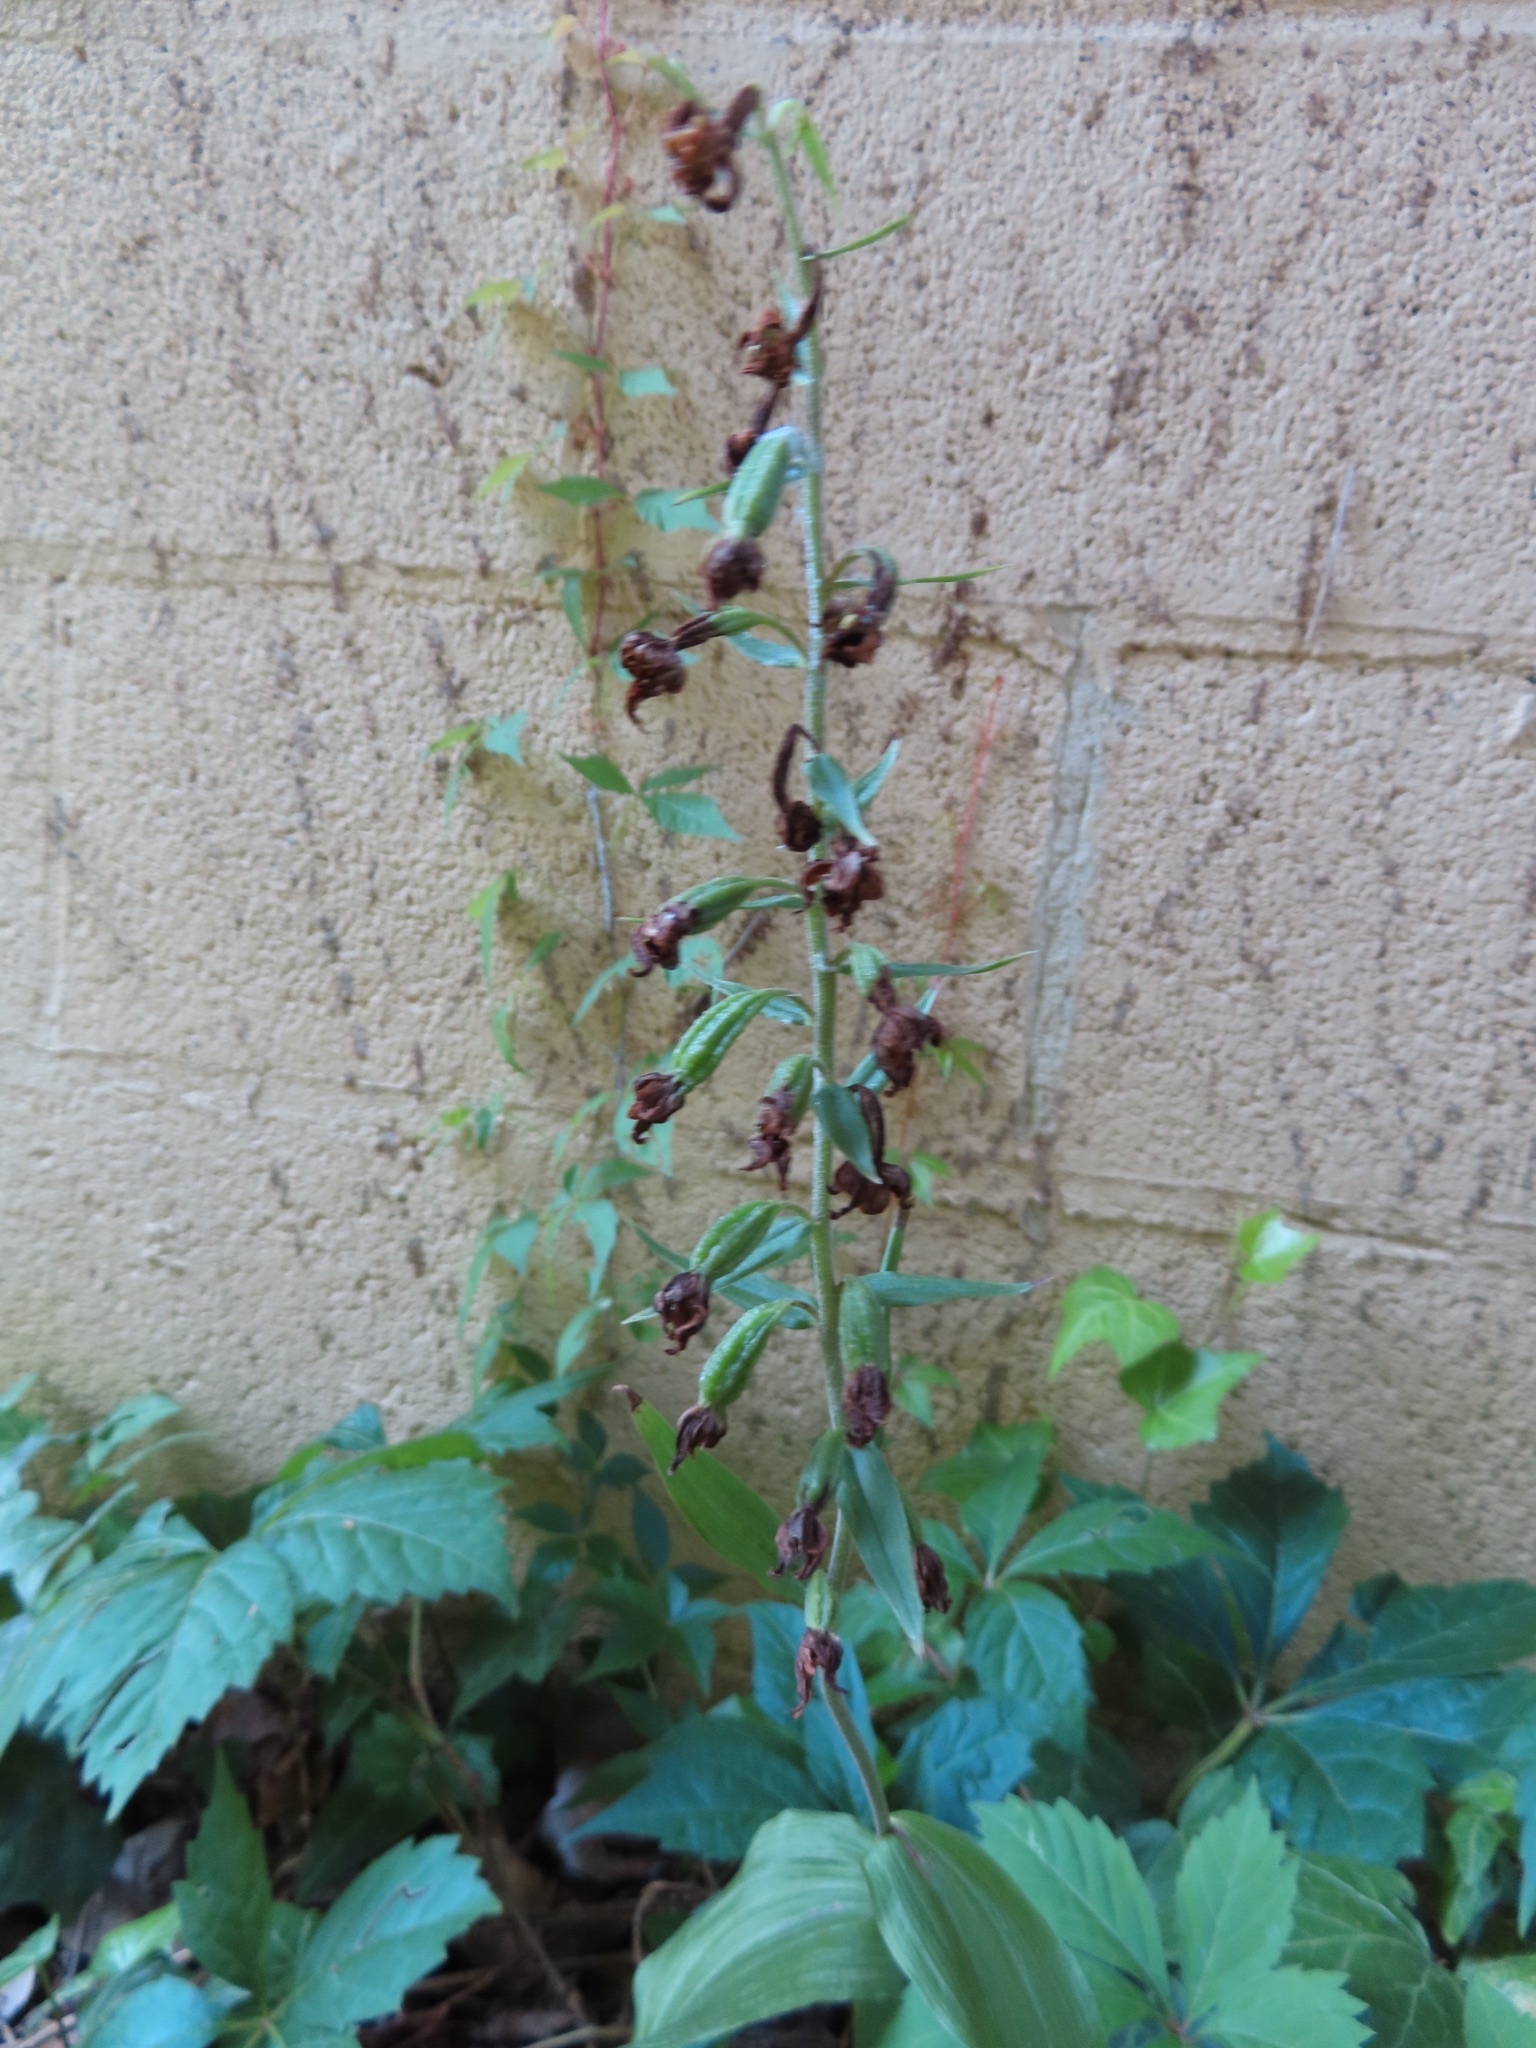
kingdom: Plantae
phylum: Tracheophyta
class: Liliopsida
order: Asparagales
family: Orchidaceae
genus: Epipactis
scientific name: Epipactis helleborine
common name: Broad-leaved helleborine
